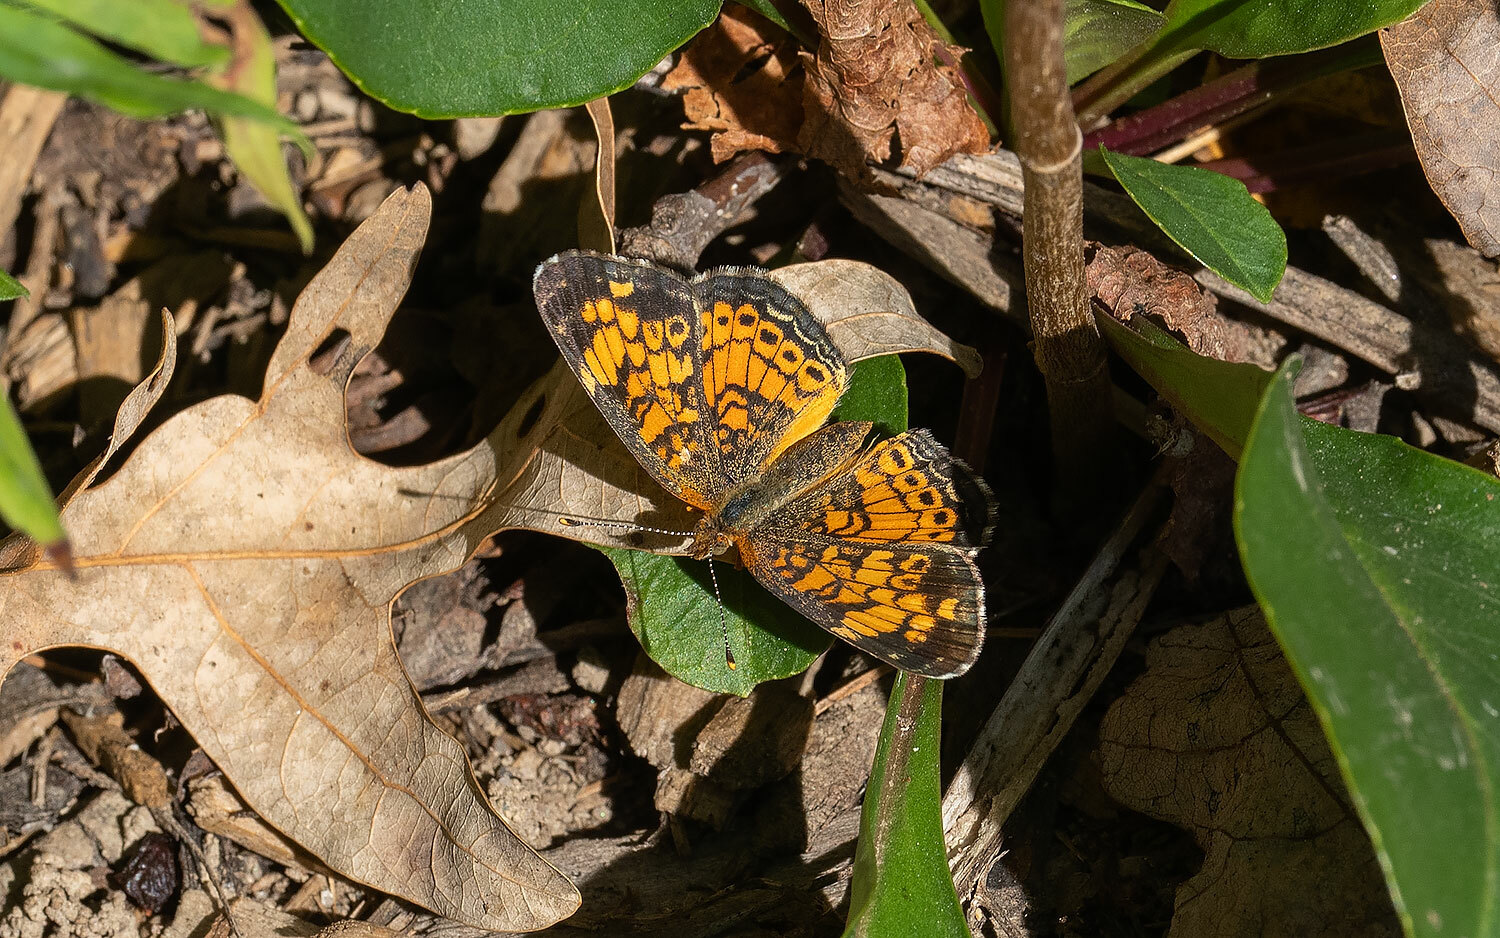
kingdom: Animalia
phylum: Arthropoda
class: Insecta
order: Lepidoptera
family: Nymphalidae
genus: Phyciodes
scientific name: Phyciodes tharos
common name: Pearl crescent
